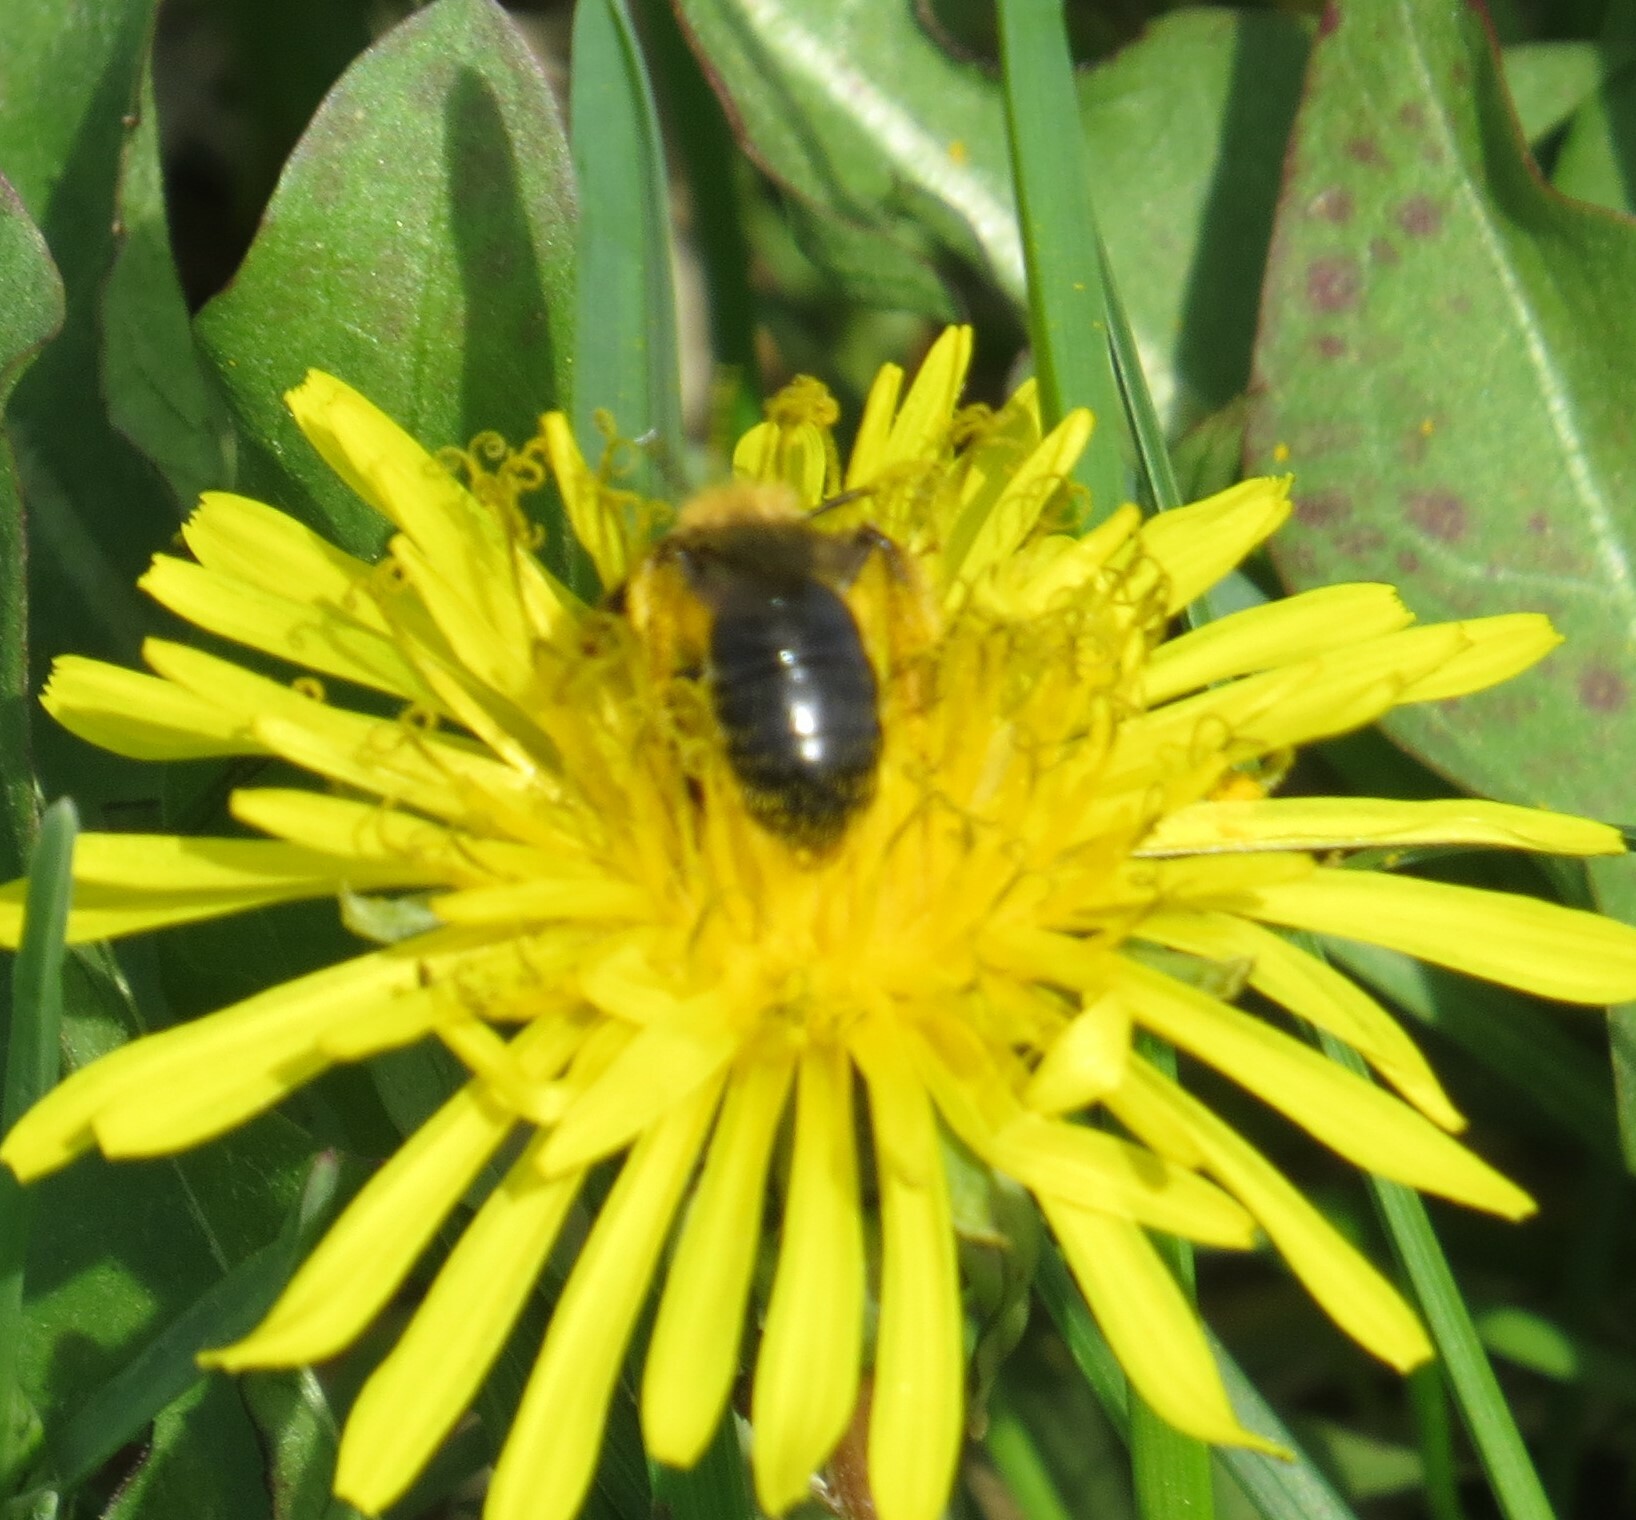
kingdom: Animalia
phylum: Arthropoda
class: Insecta
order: Hymenoptera
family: Andrenidae
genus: Andrena
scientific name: Andrena
